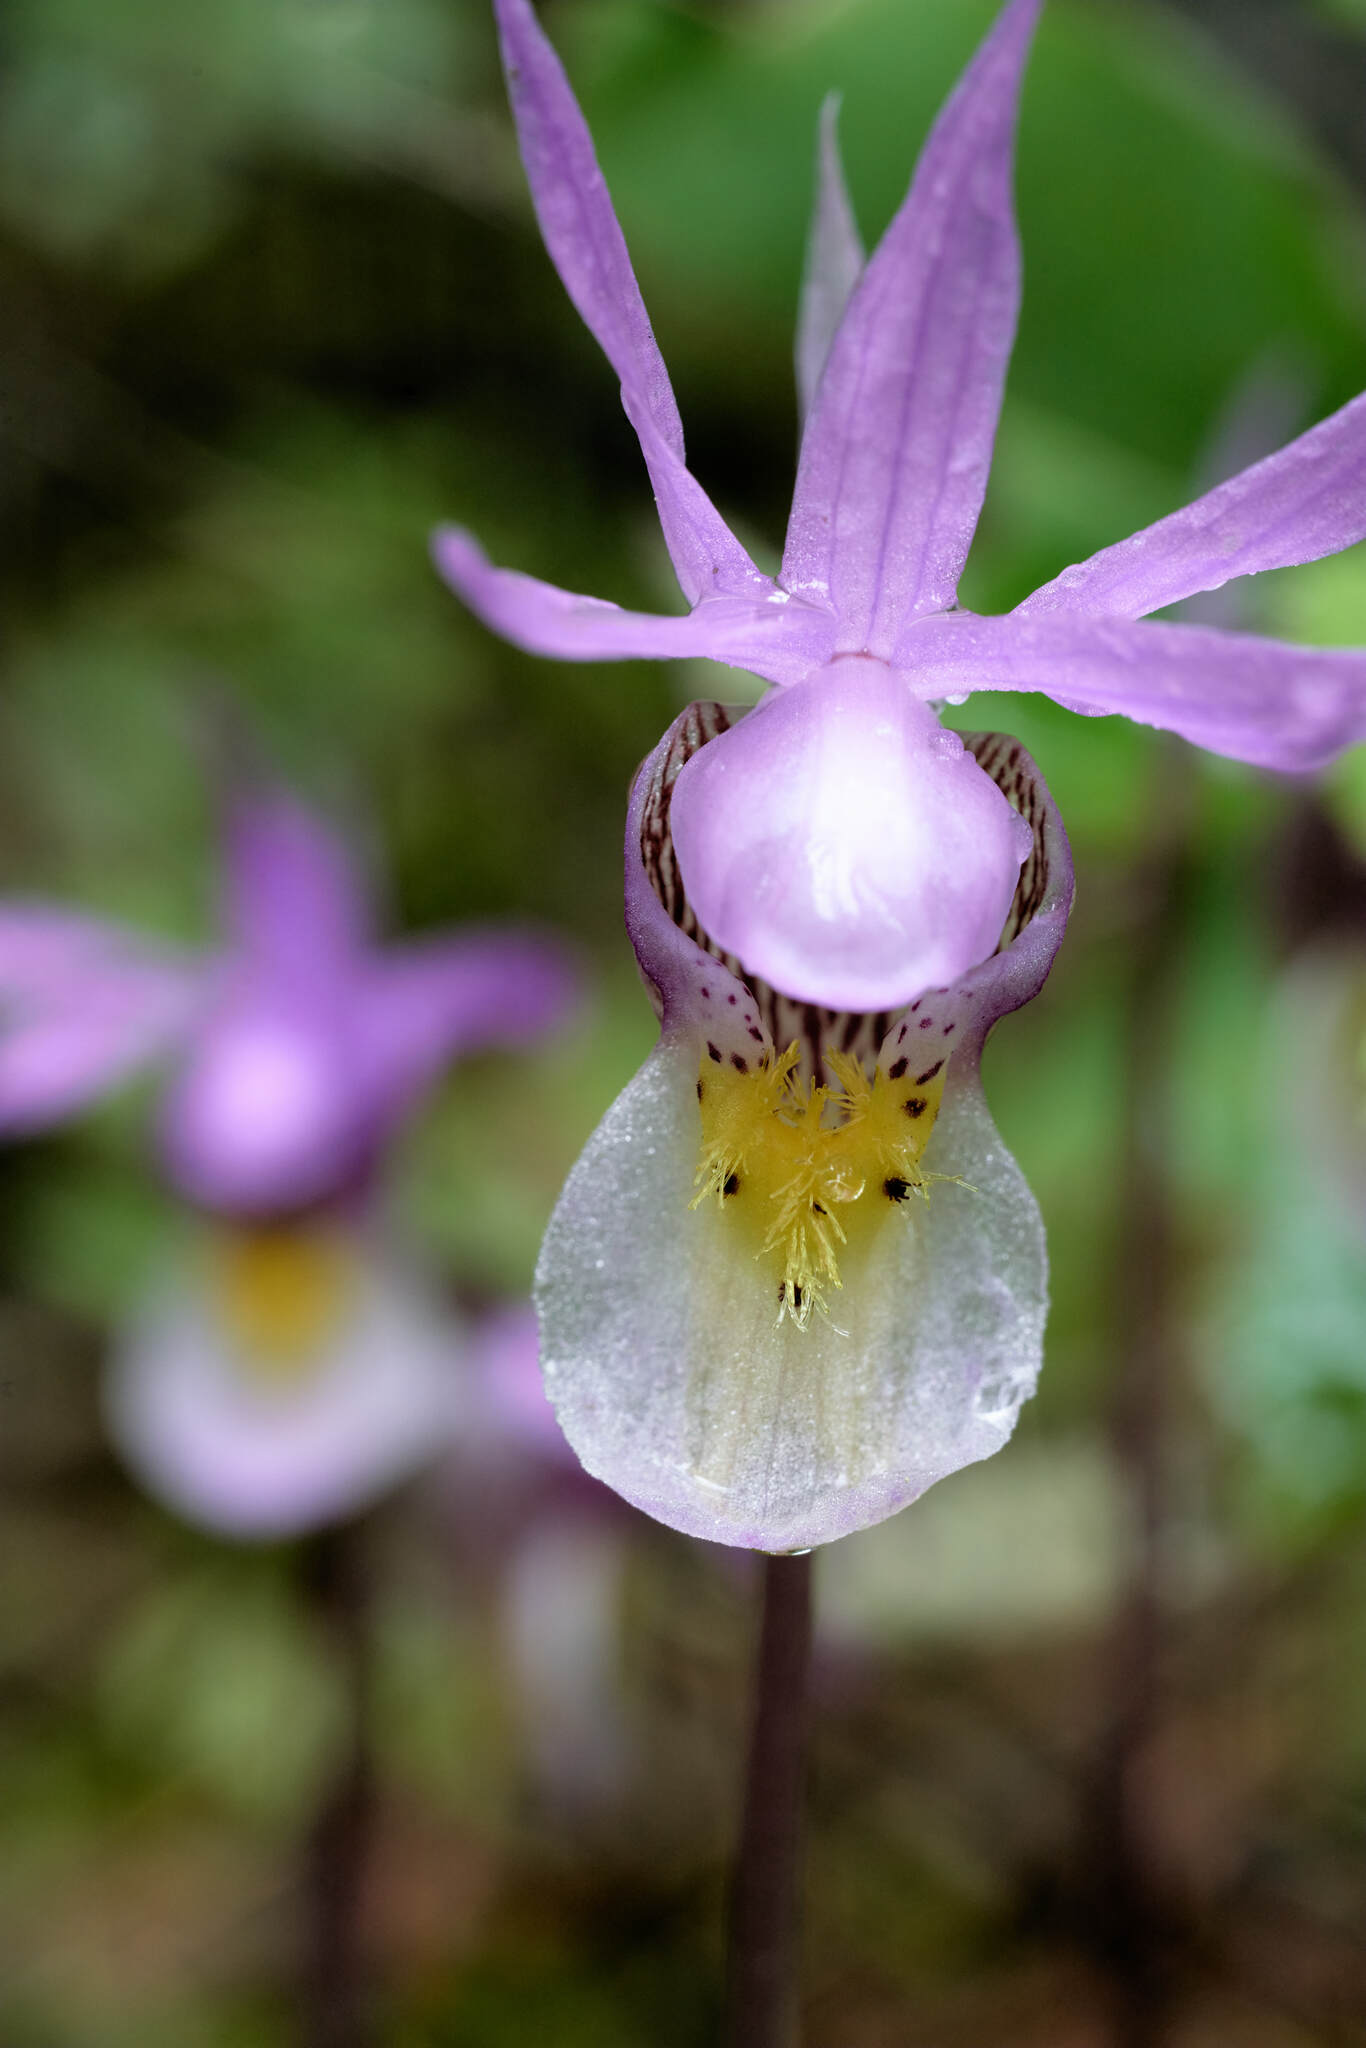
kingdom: Plantae
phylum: Tracheophyta
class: Liliopsida
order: Asparagales
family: Orchidaceae
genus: Calypso
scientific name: Calypso bulbosa
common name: Calypso
